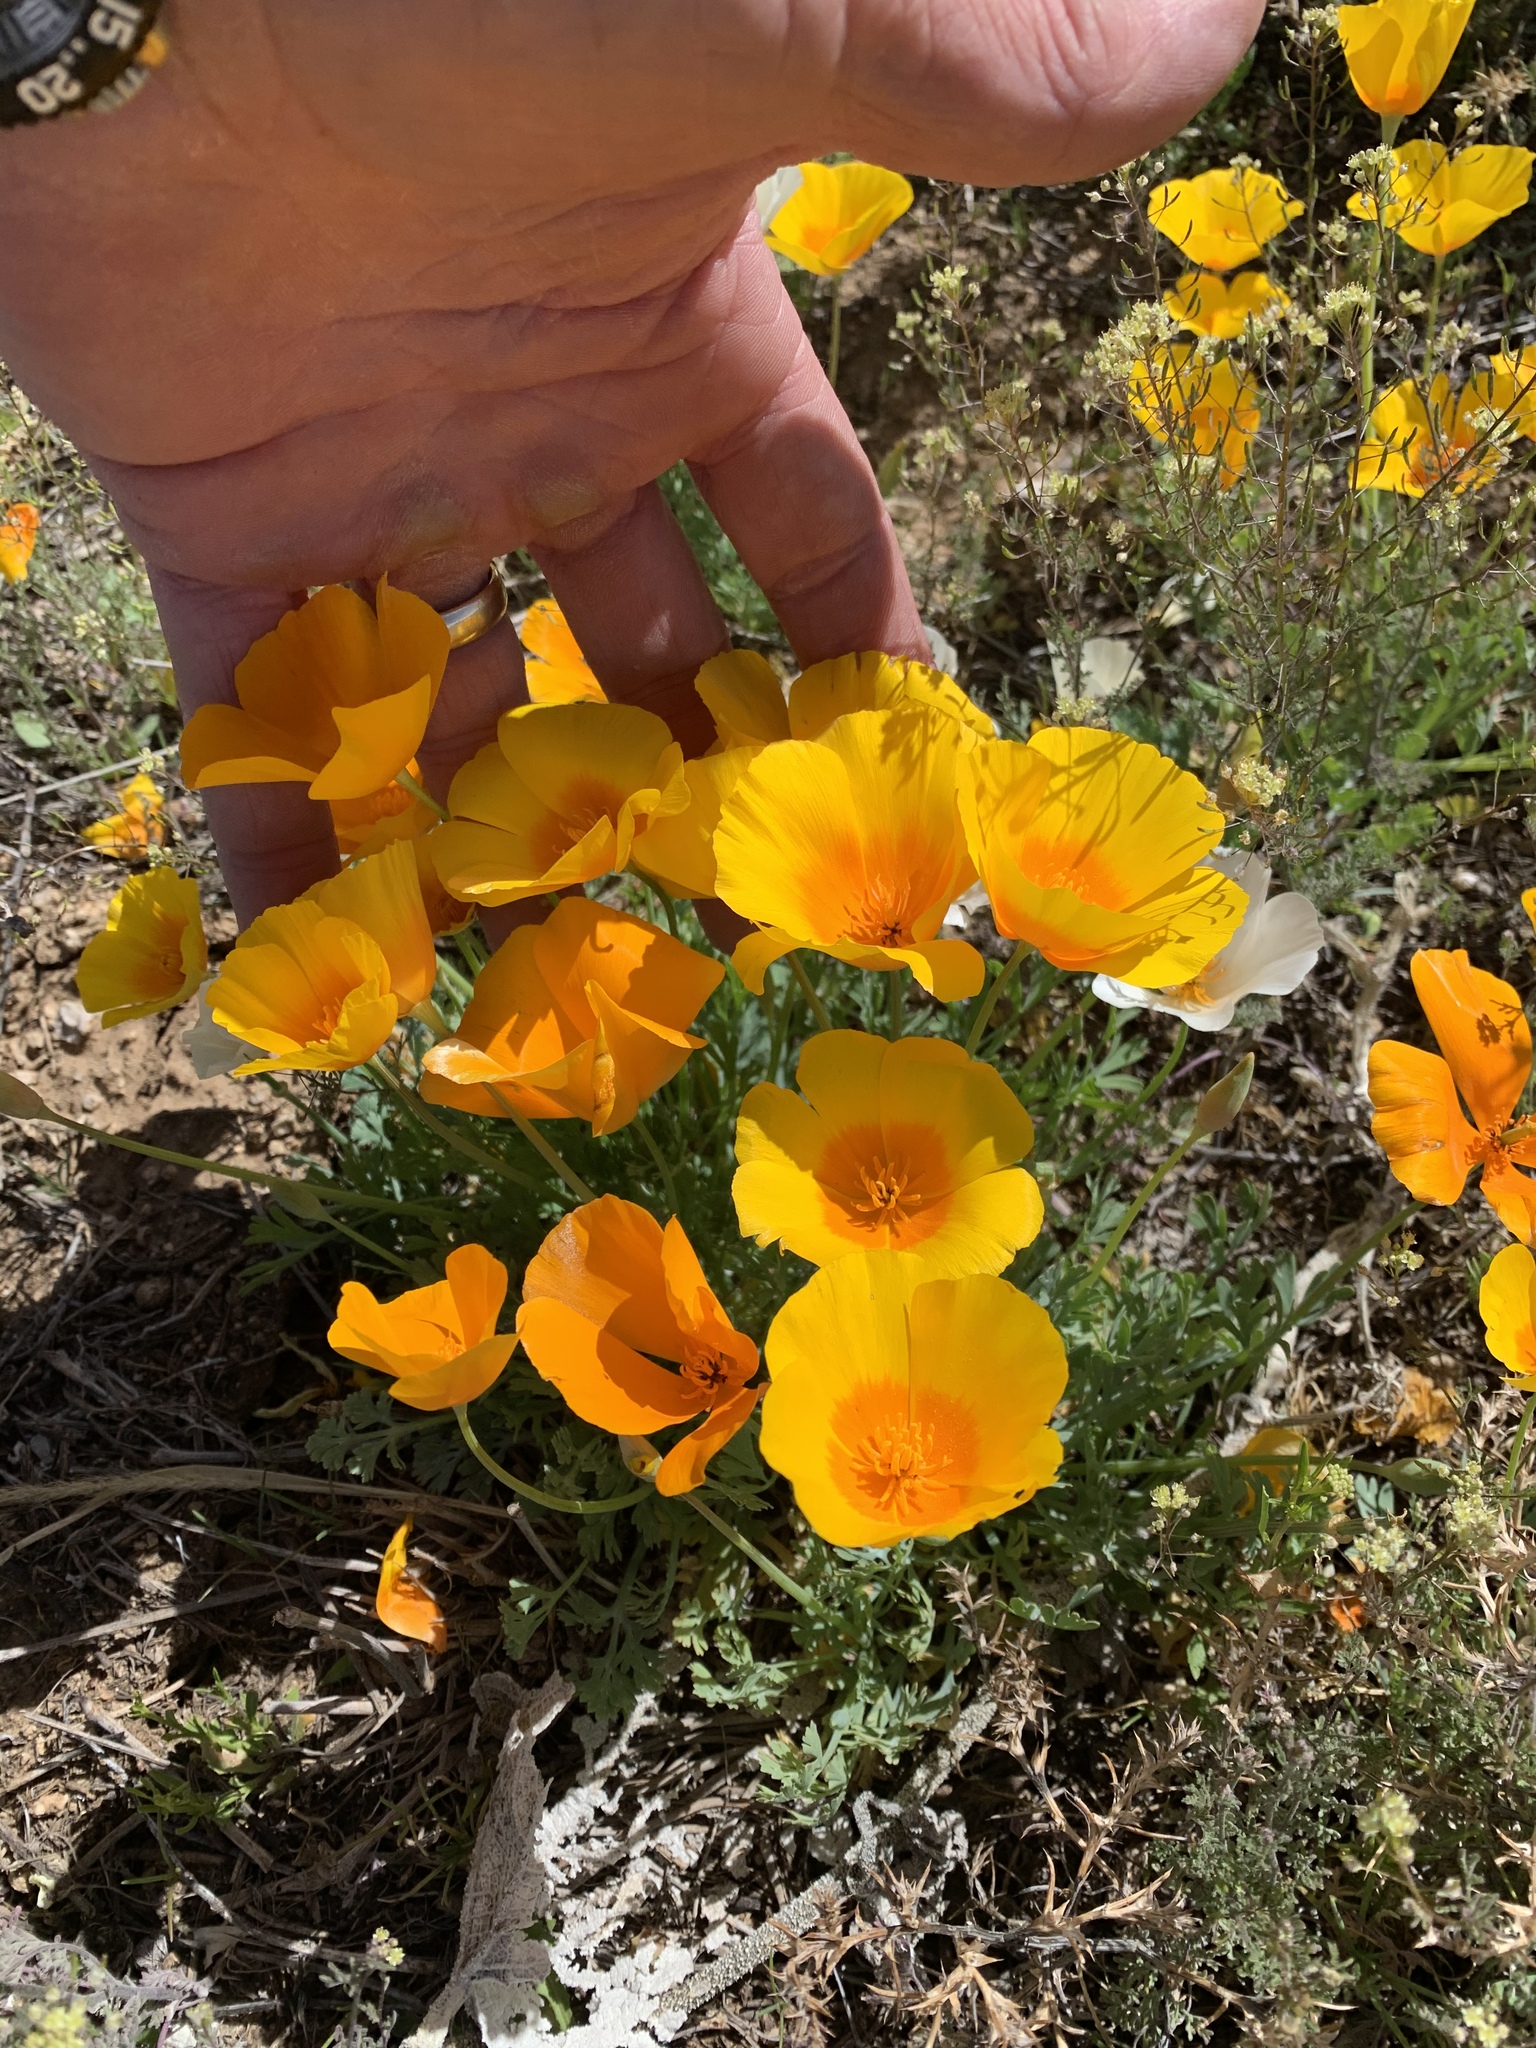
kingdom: Plantae
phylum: Tracheophyta
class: Magnoliopsida
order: Ranunculales
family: Papaveraceae
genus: Eschscholzia
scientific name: Eschscholzia californica
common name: California poppy
